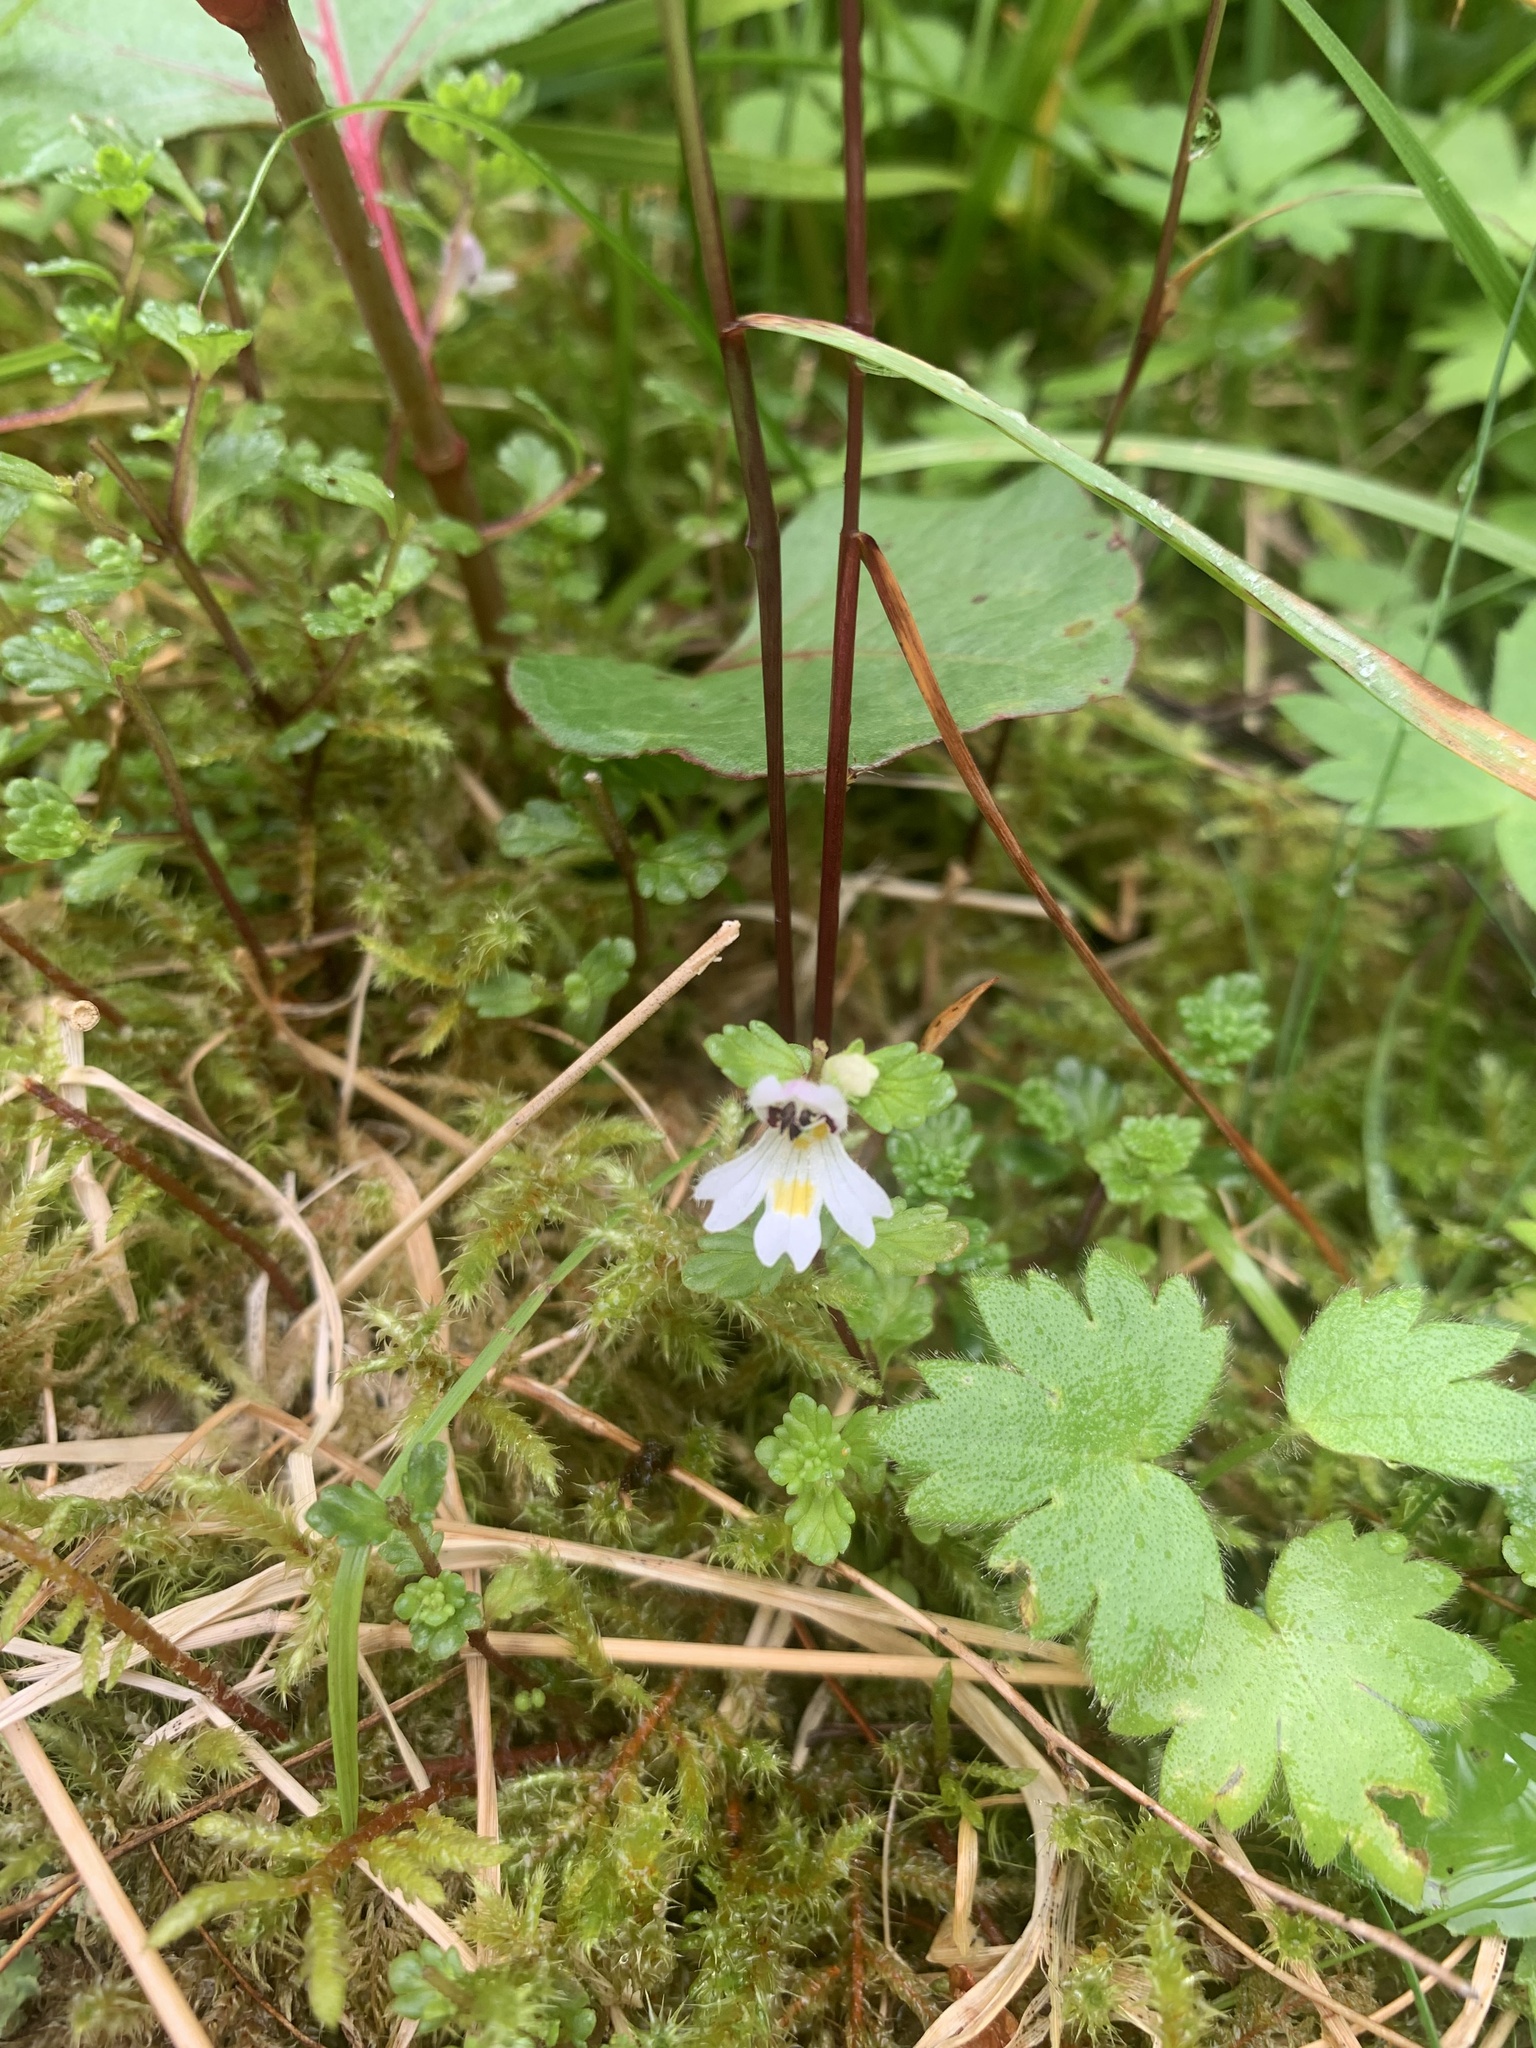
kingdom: Plantae
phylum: Tracheophyta
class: Magnoliopsida
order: Lamiales
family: Orobanchaceae
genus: Euphrasia
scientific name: Euphrasia matsumurae
